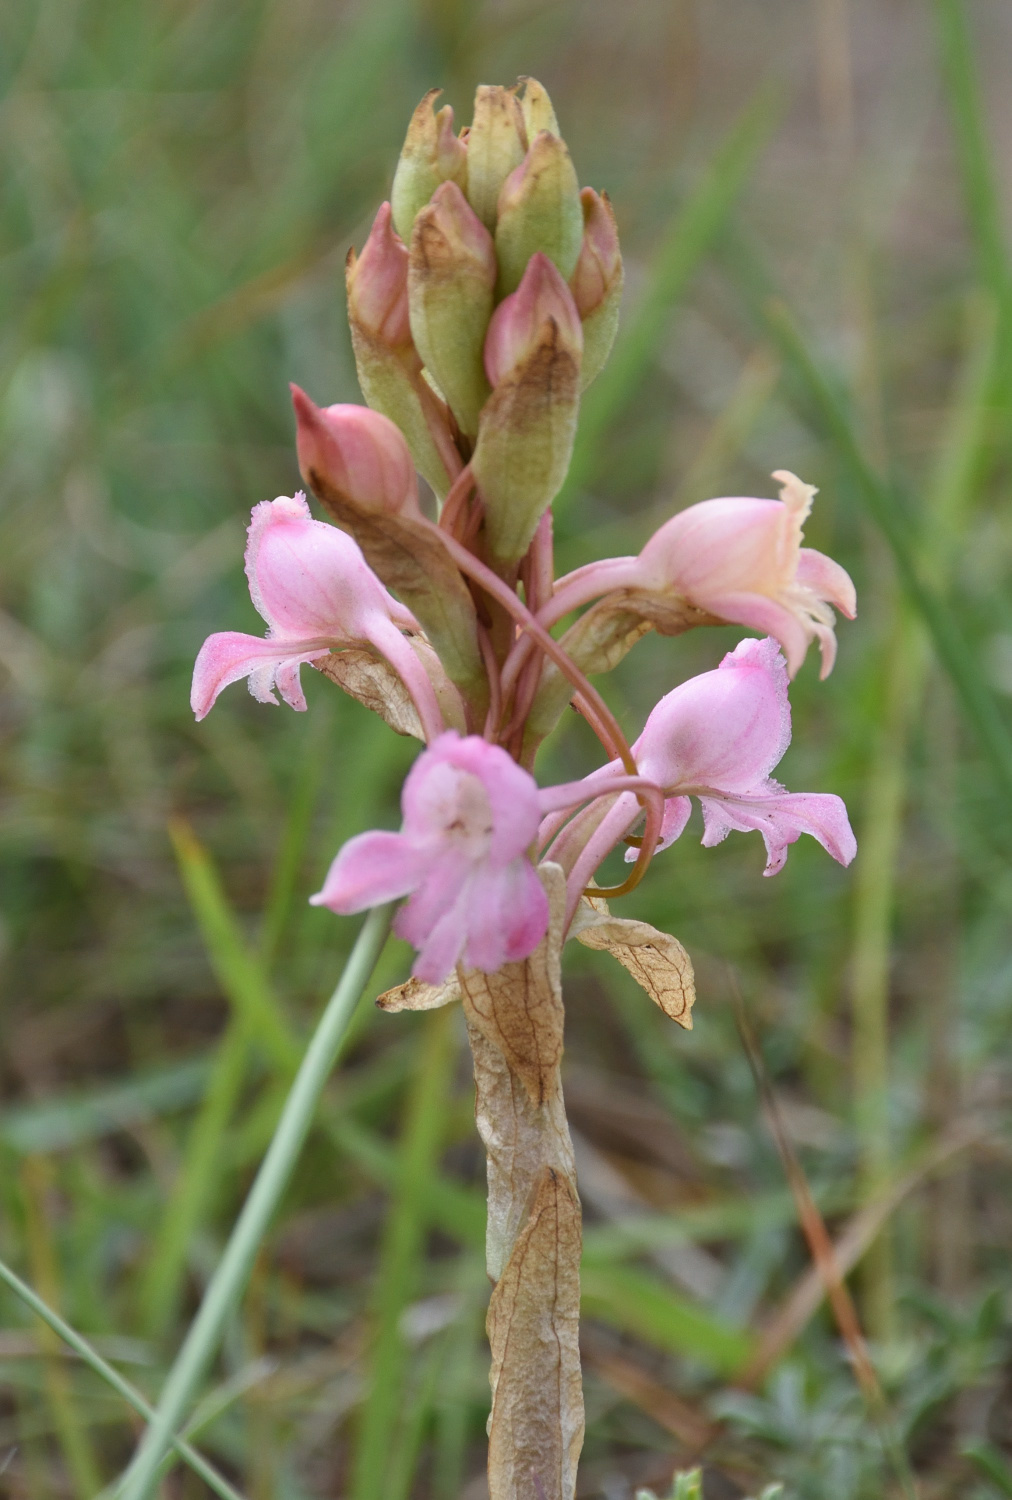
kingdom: Plantae
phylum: Tracheophyta
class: Liliopsida
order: Asparagales
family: Orchidaceae
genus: Satyrium
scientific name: Satyrium membranaceum
